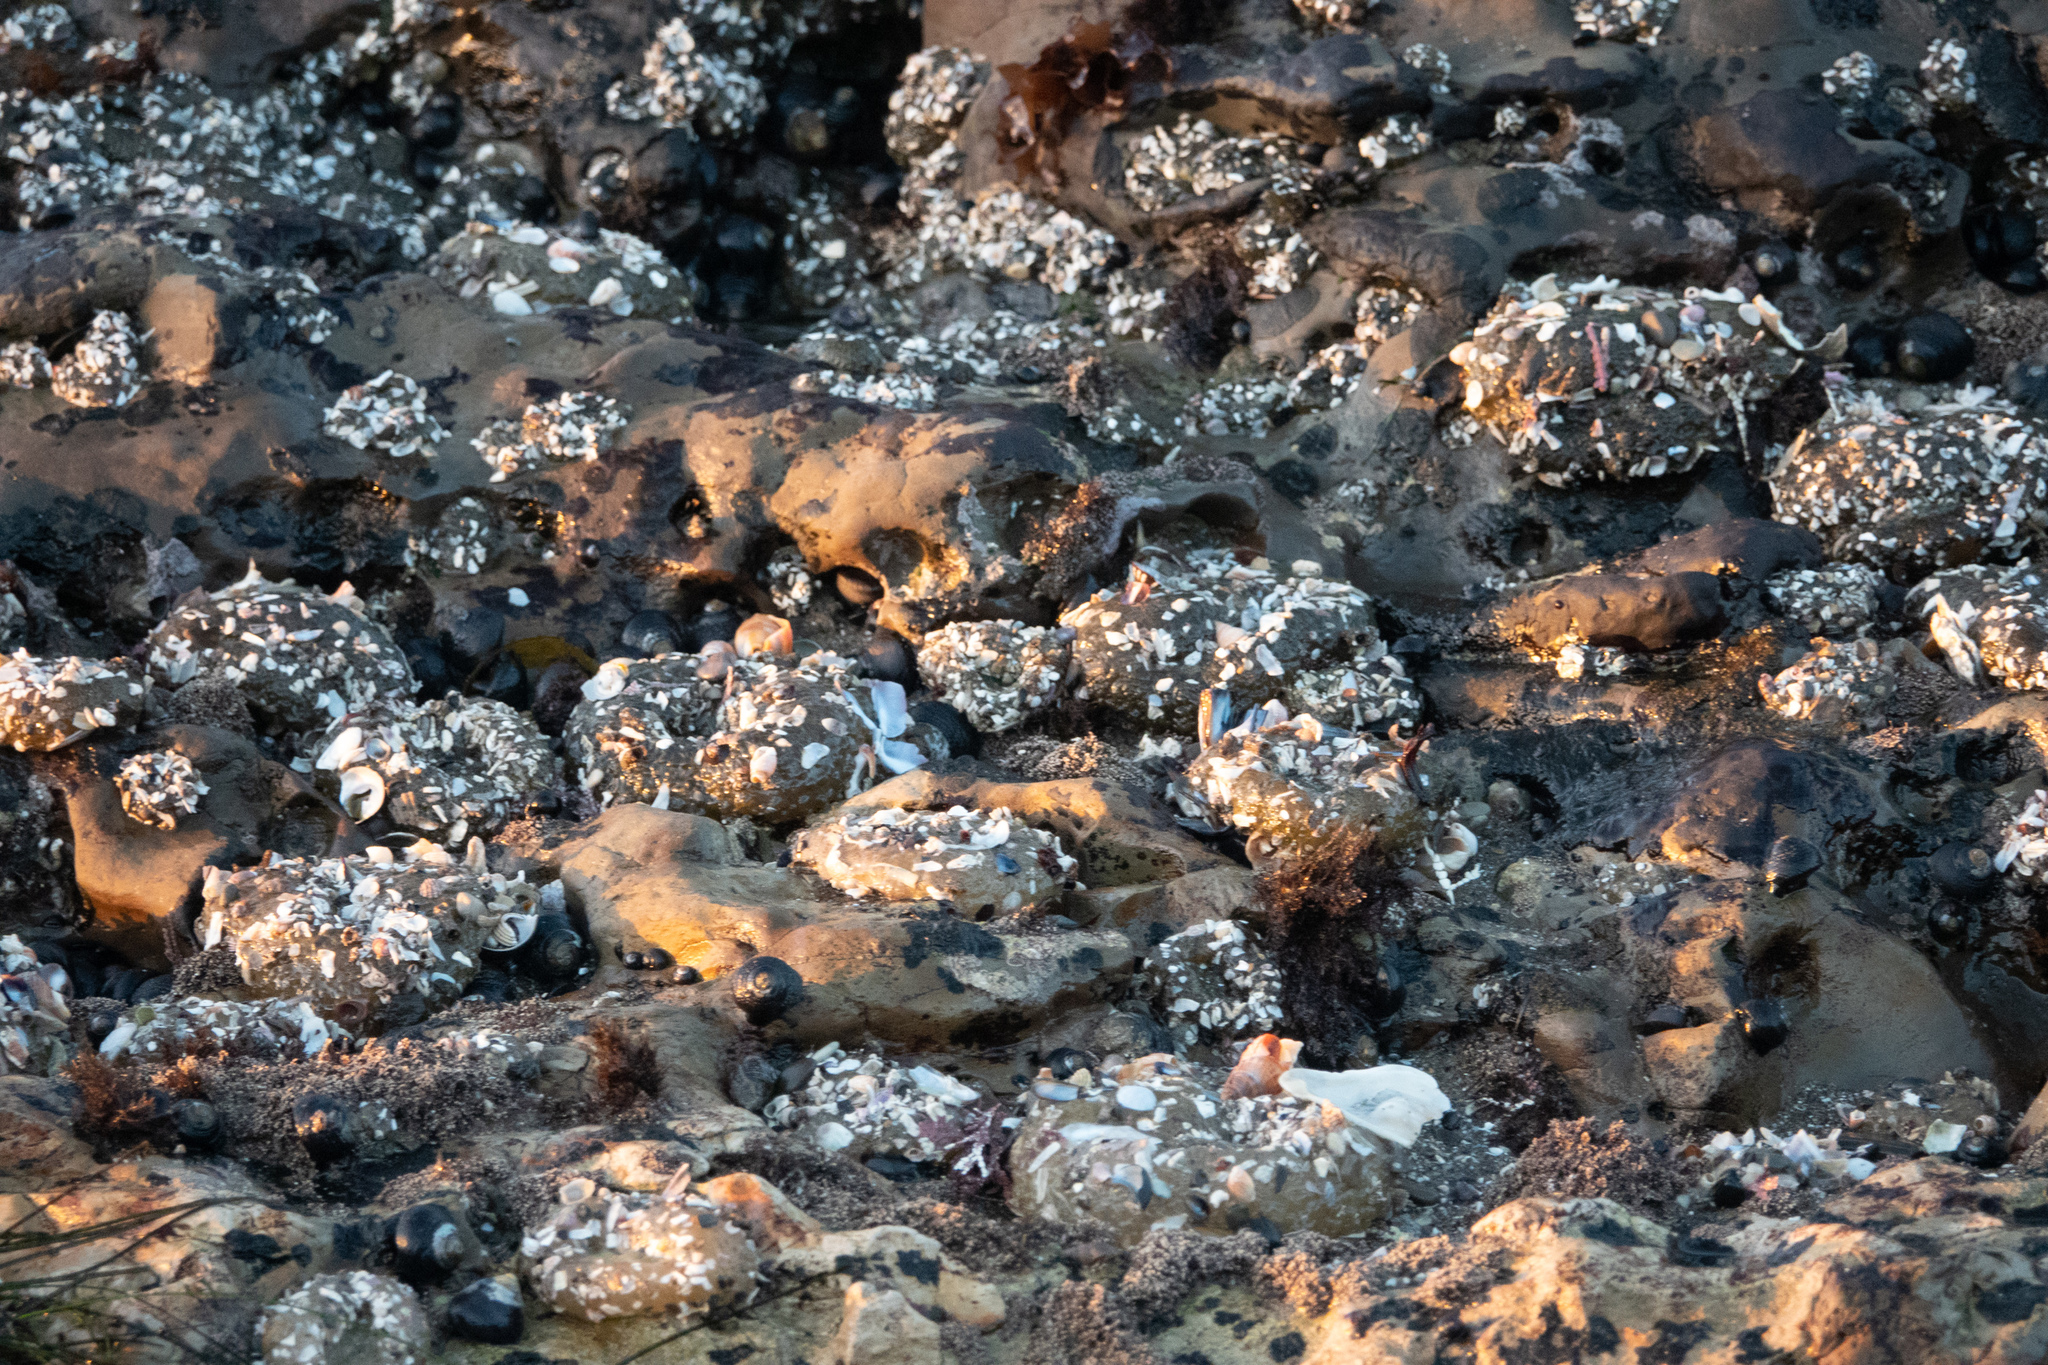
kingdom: Animalia
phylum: Cnidaria
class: Anthozoa
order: Actiniaria
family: Actiniidae
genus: Anthopleura
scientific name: Anthopleura elegantissima
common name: Clonal anemone
